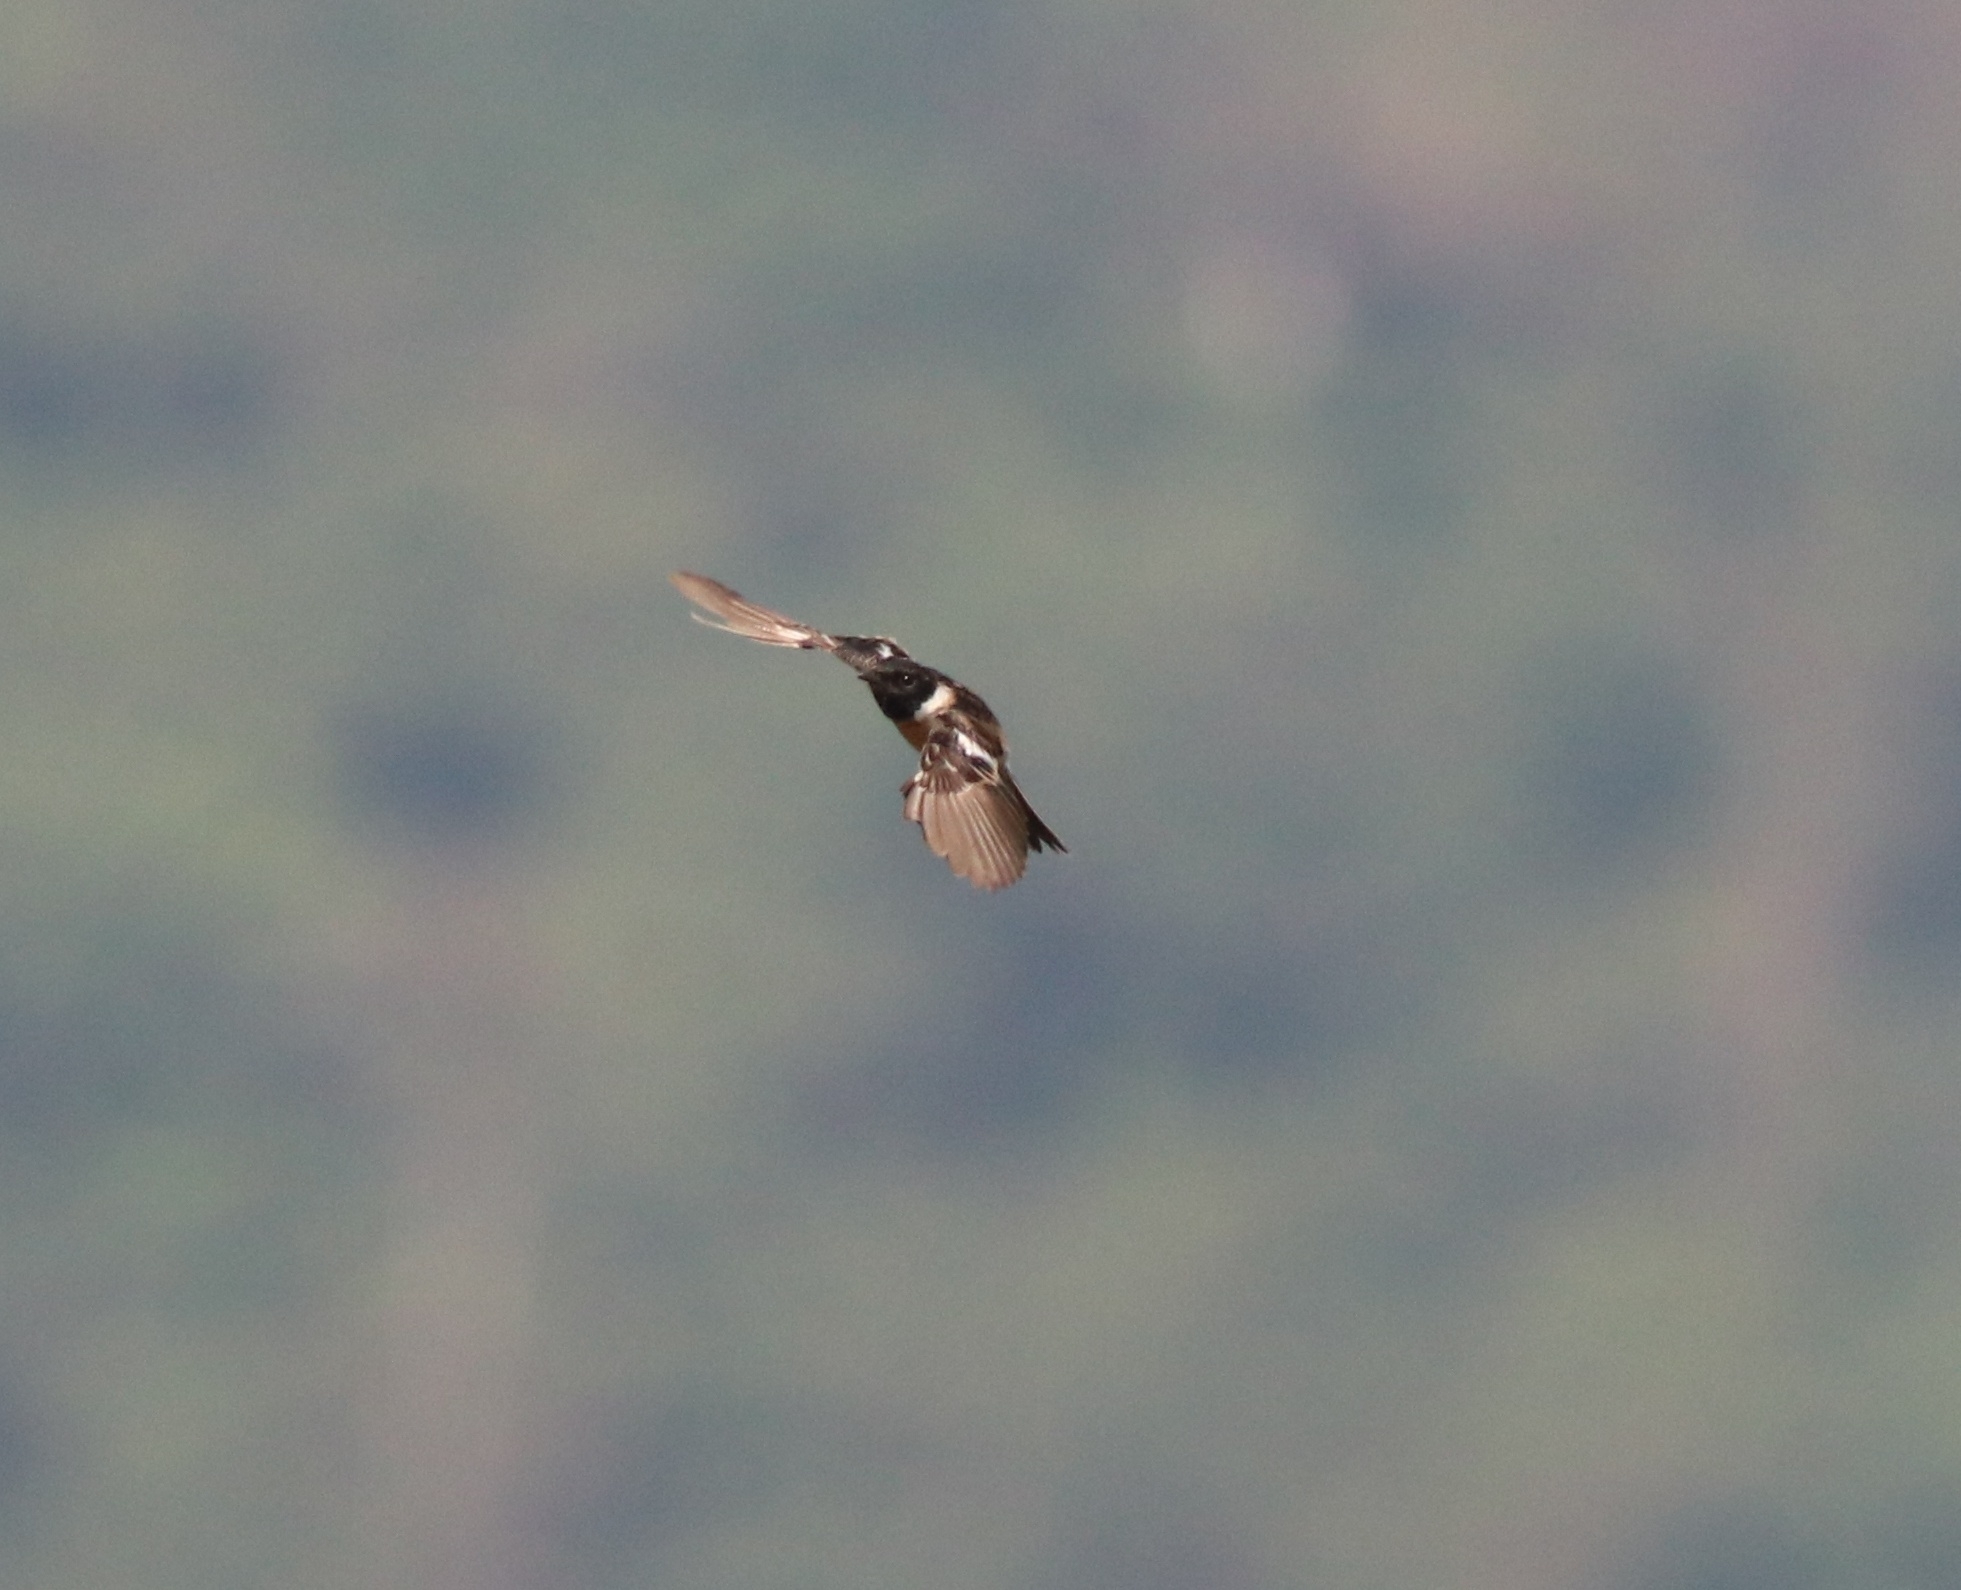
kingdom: Animalia
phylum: Chordata
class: Aves
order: Passeriformes
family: Muscicapidae
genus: Saxicola
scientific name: Saxicola maurus
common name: Siberian stonechat
